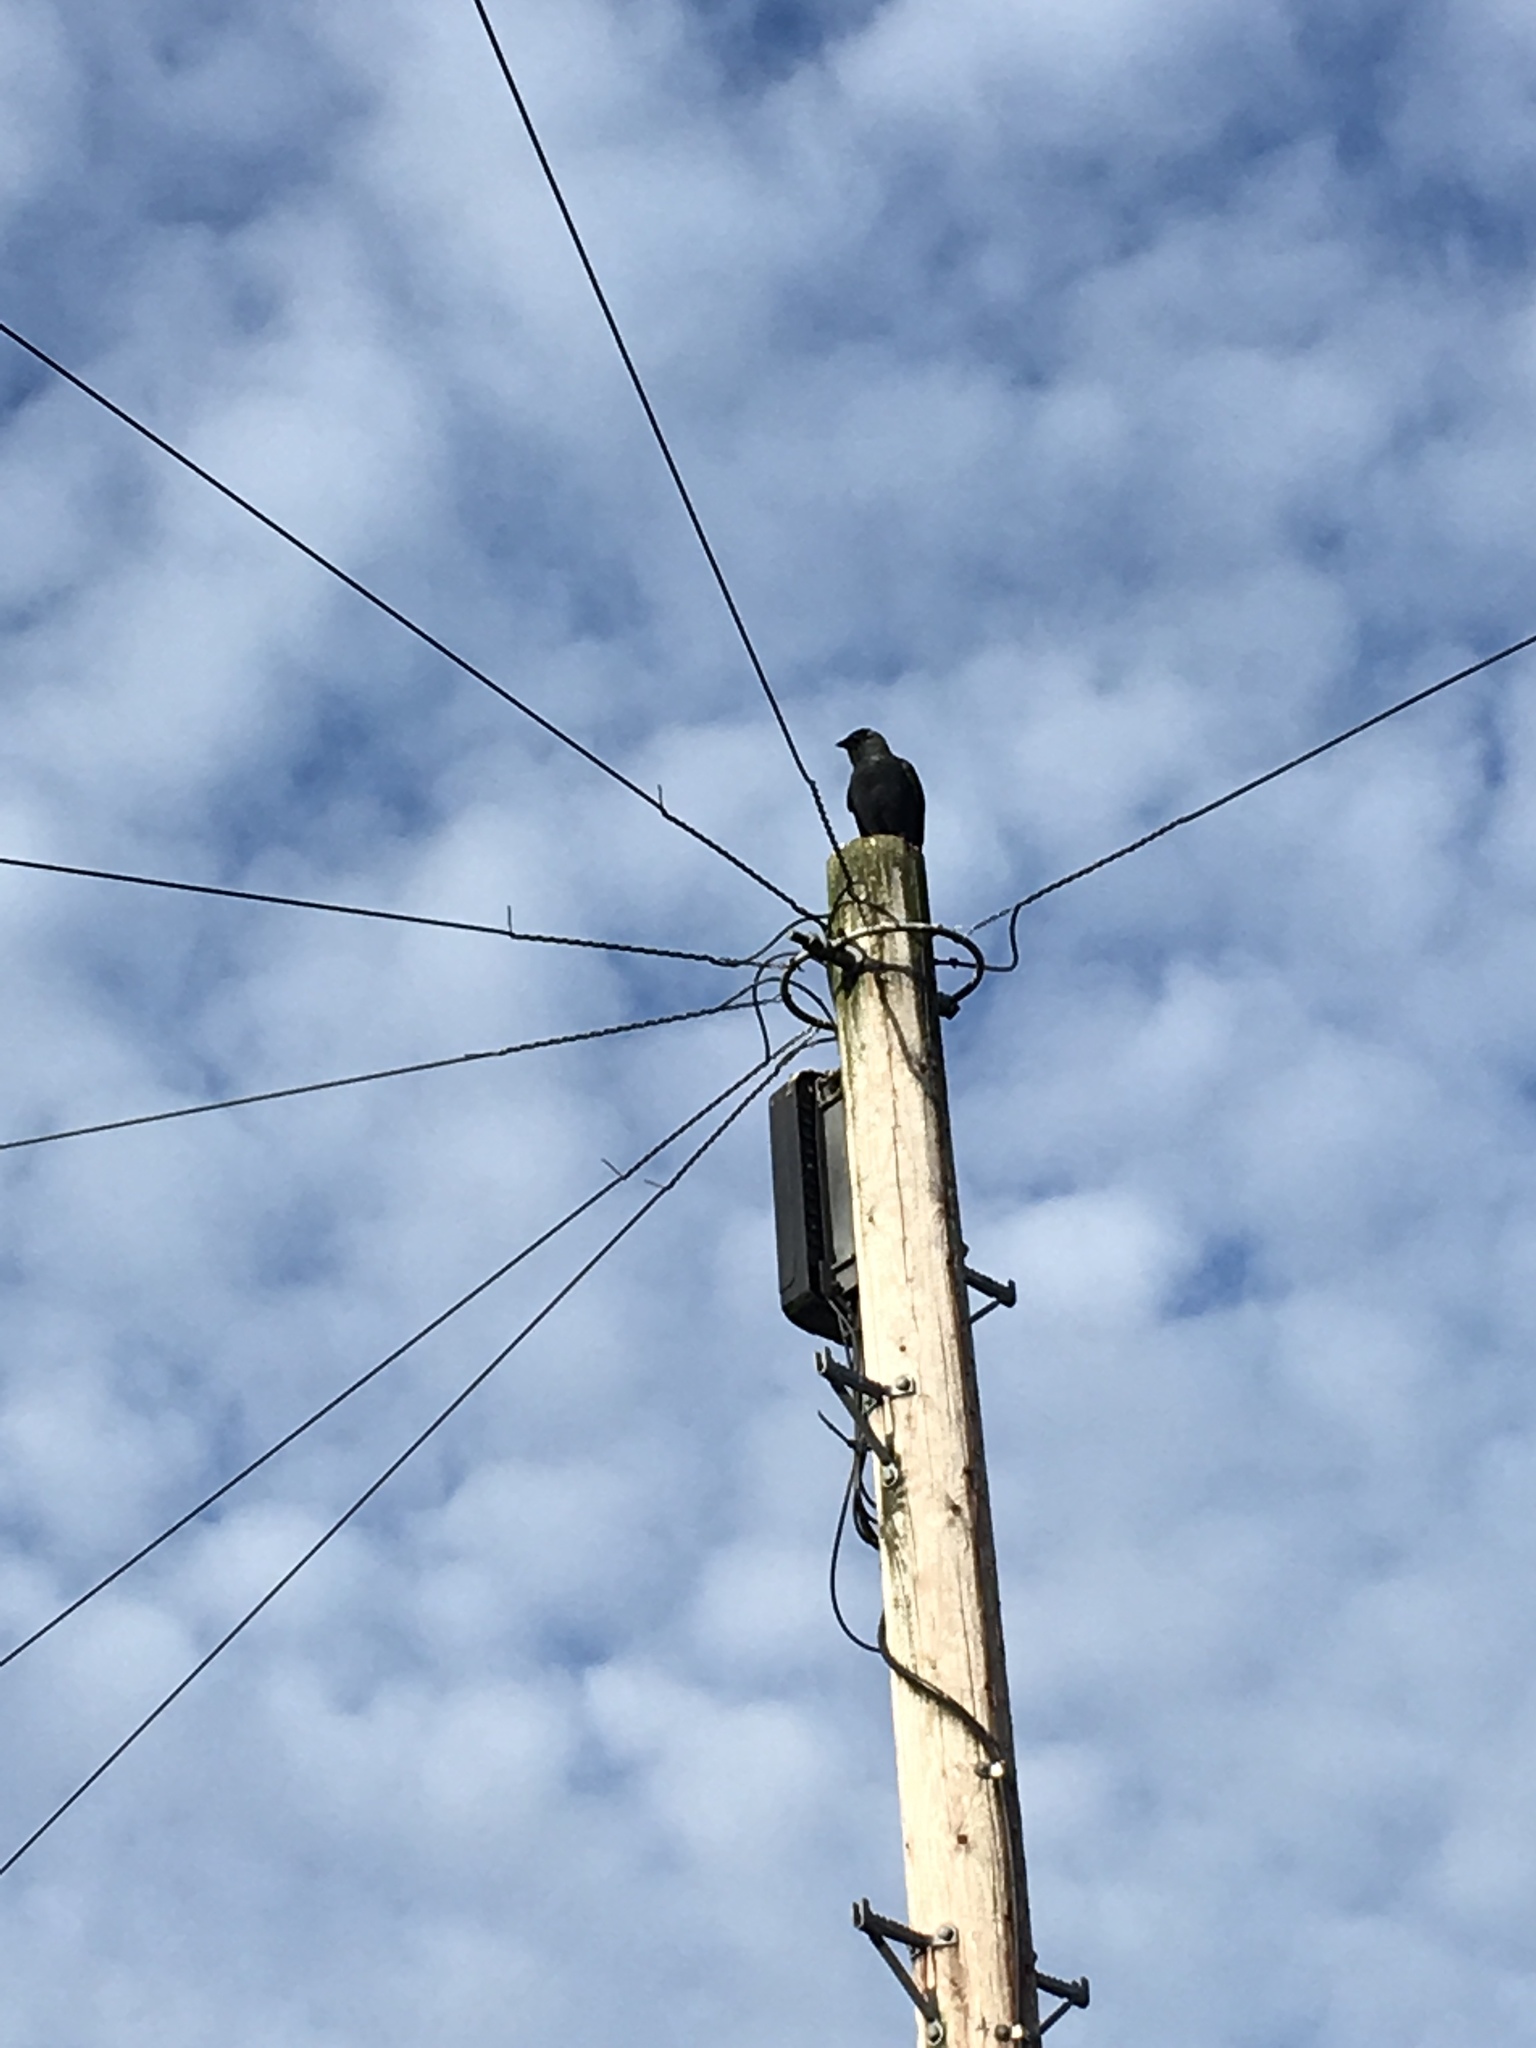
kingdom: Animalia
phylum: Chordata
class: Aves
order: Passeriformes
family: Corvidae
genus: Coloeus
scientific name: Coloeus monedula
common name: Western jackdaw
